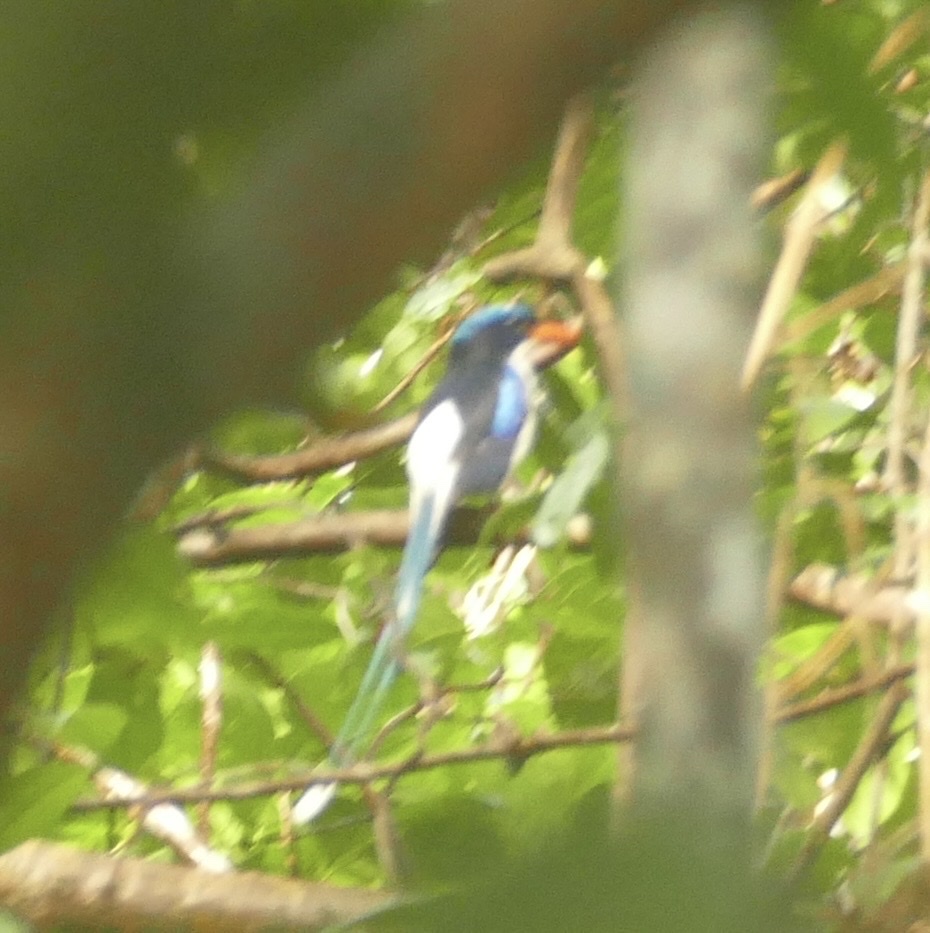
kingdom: Animalia
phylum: Chordata
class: Aves
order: Coraciiformes
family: Alcedinidae
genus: Tanysiptera
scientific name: Tanysiptera galatea
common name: Common paradise-kingfisher
